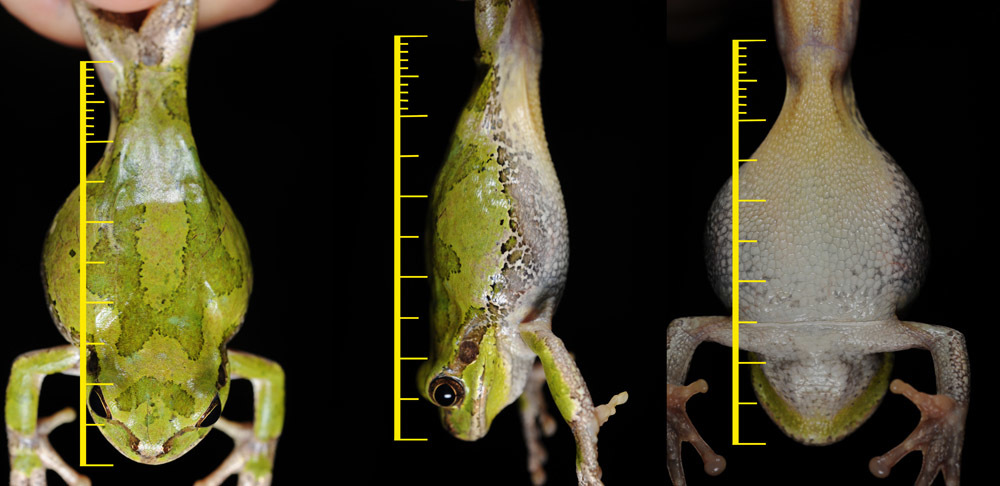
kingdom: Animalia
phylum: Chordata
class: Amphibia
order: Anura
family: Hylidae
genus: Dryophytes
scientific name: Dryophytes japonicus
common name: Japanese treefrog
